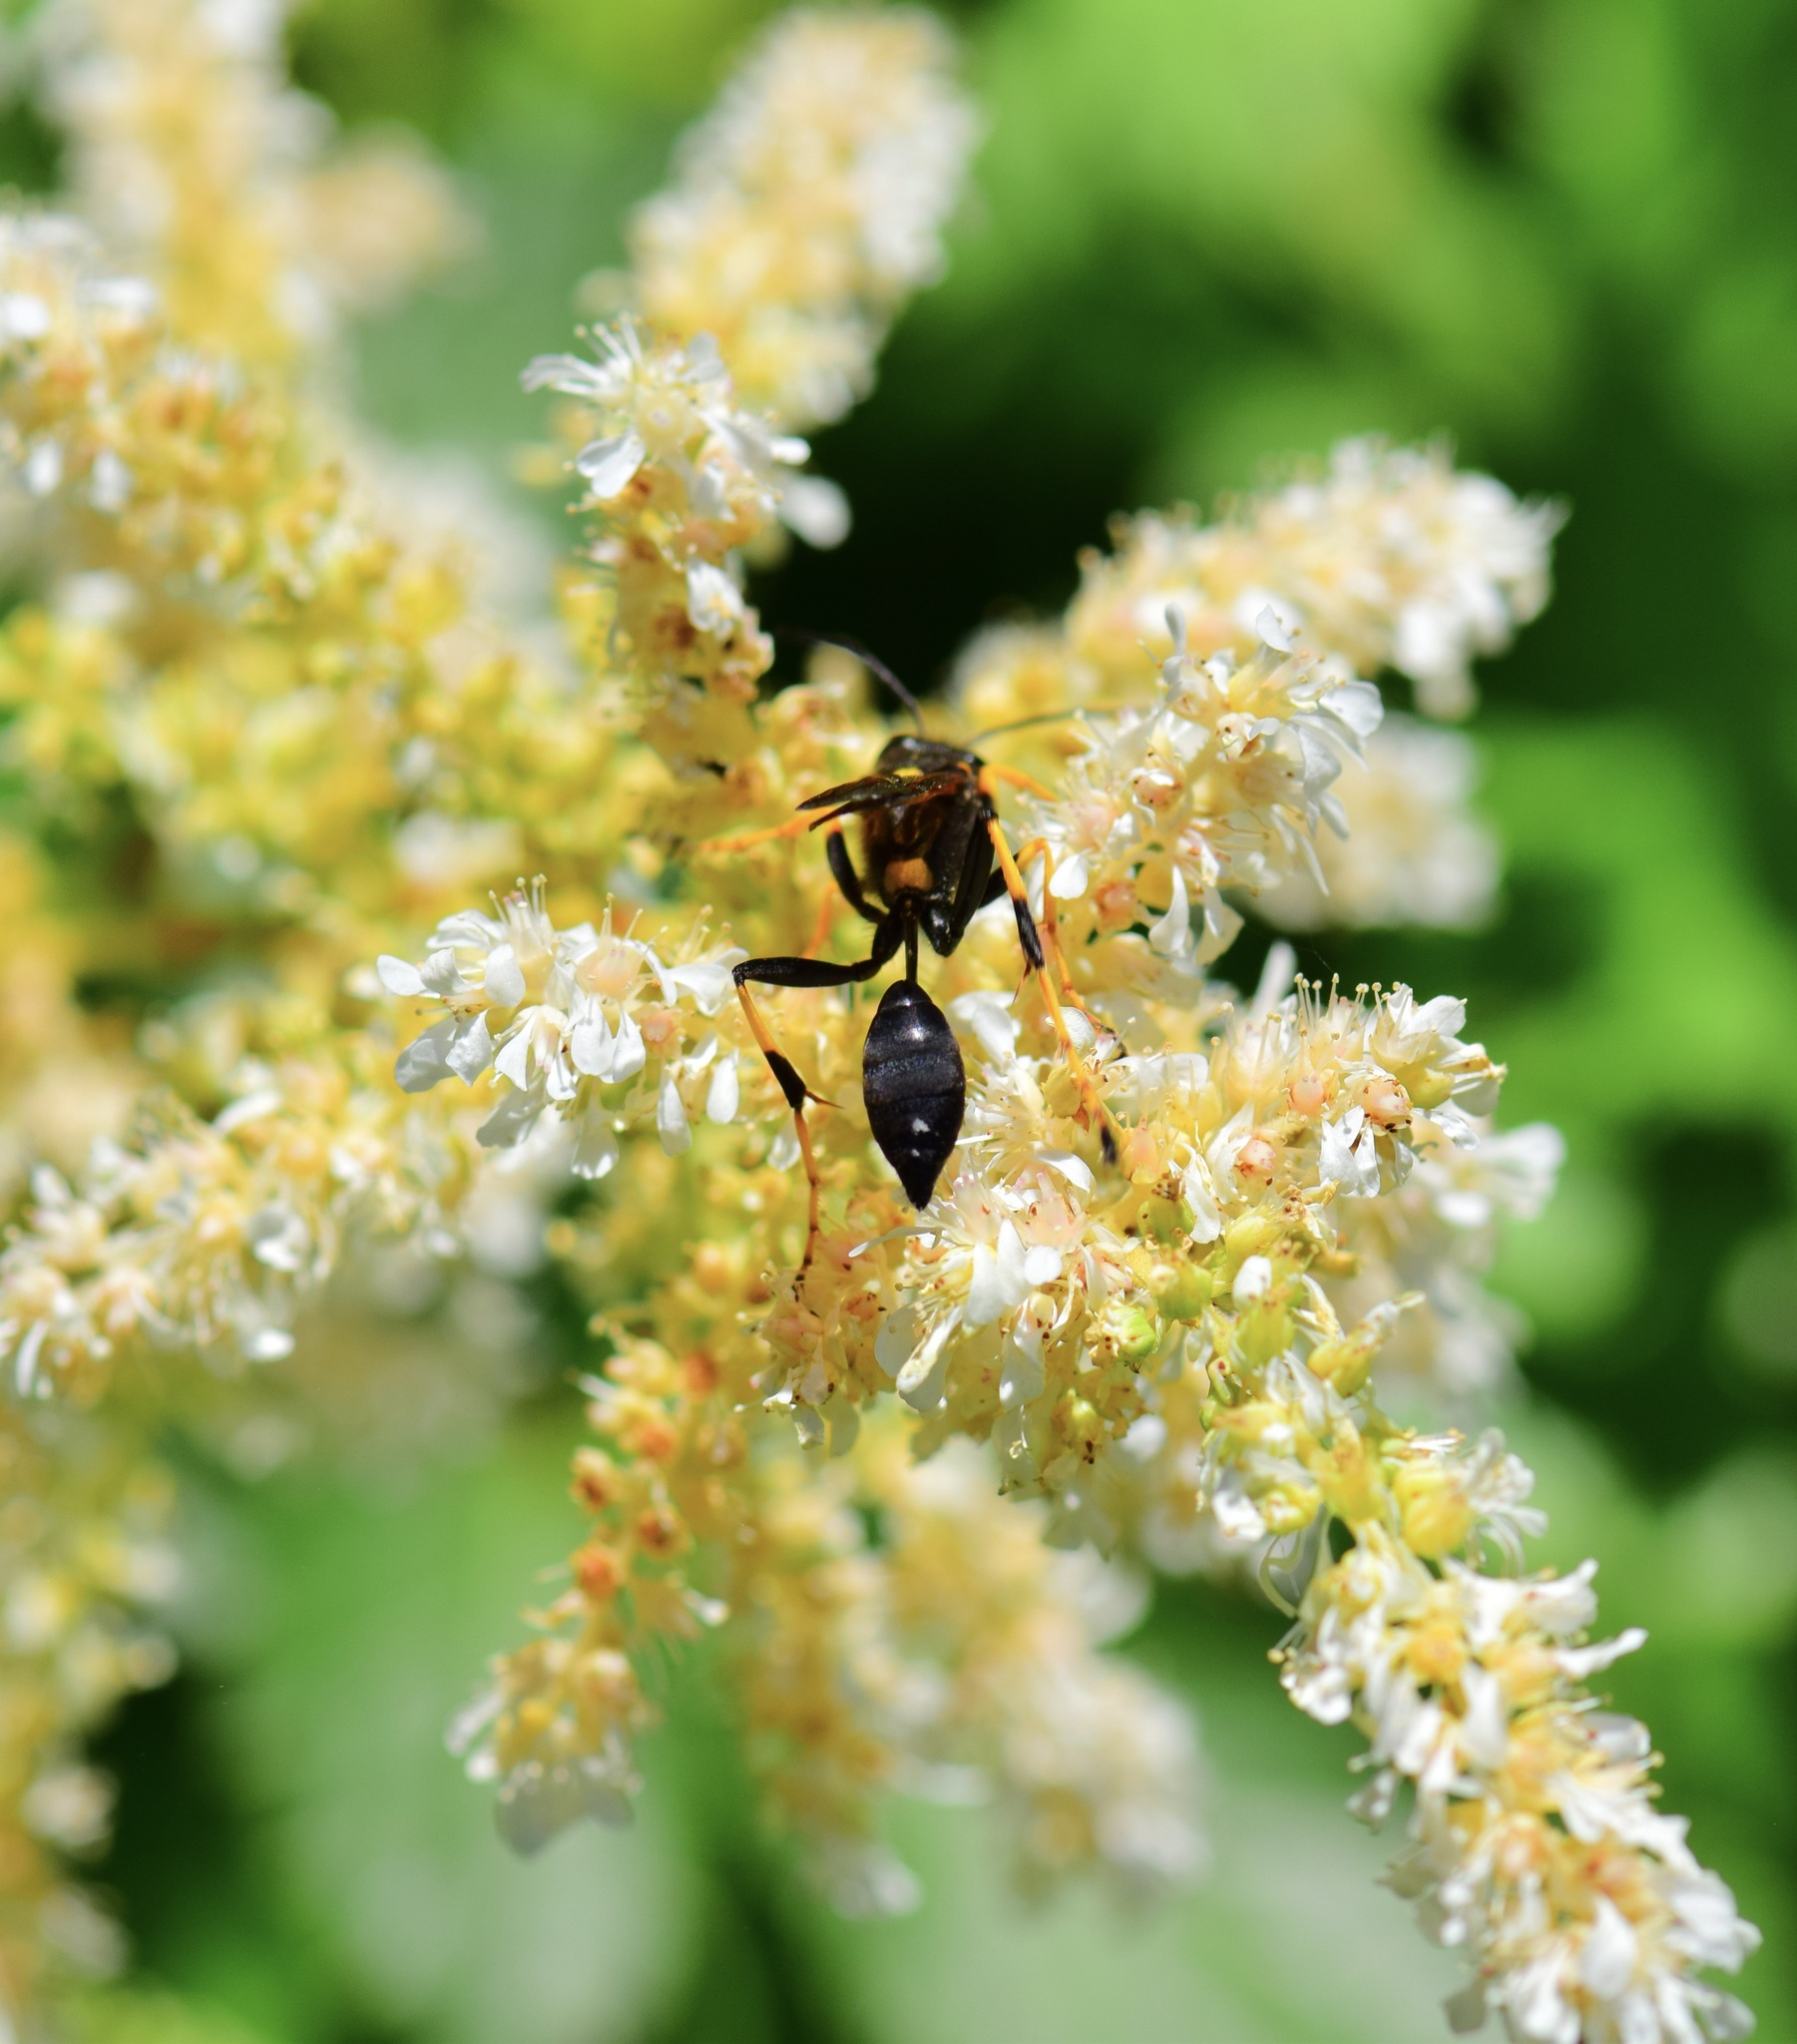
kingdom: Animalia
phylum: Arthropoda
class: Insecta
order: Hymenoptera
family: Sphecidae
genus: Sceliphron
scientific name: Sceliphron caementarium
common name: Mud dauber
